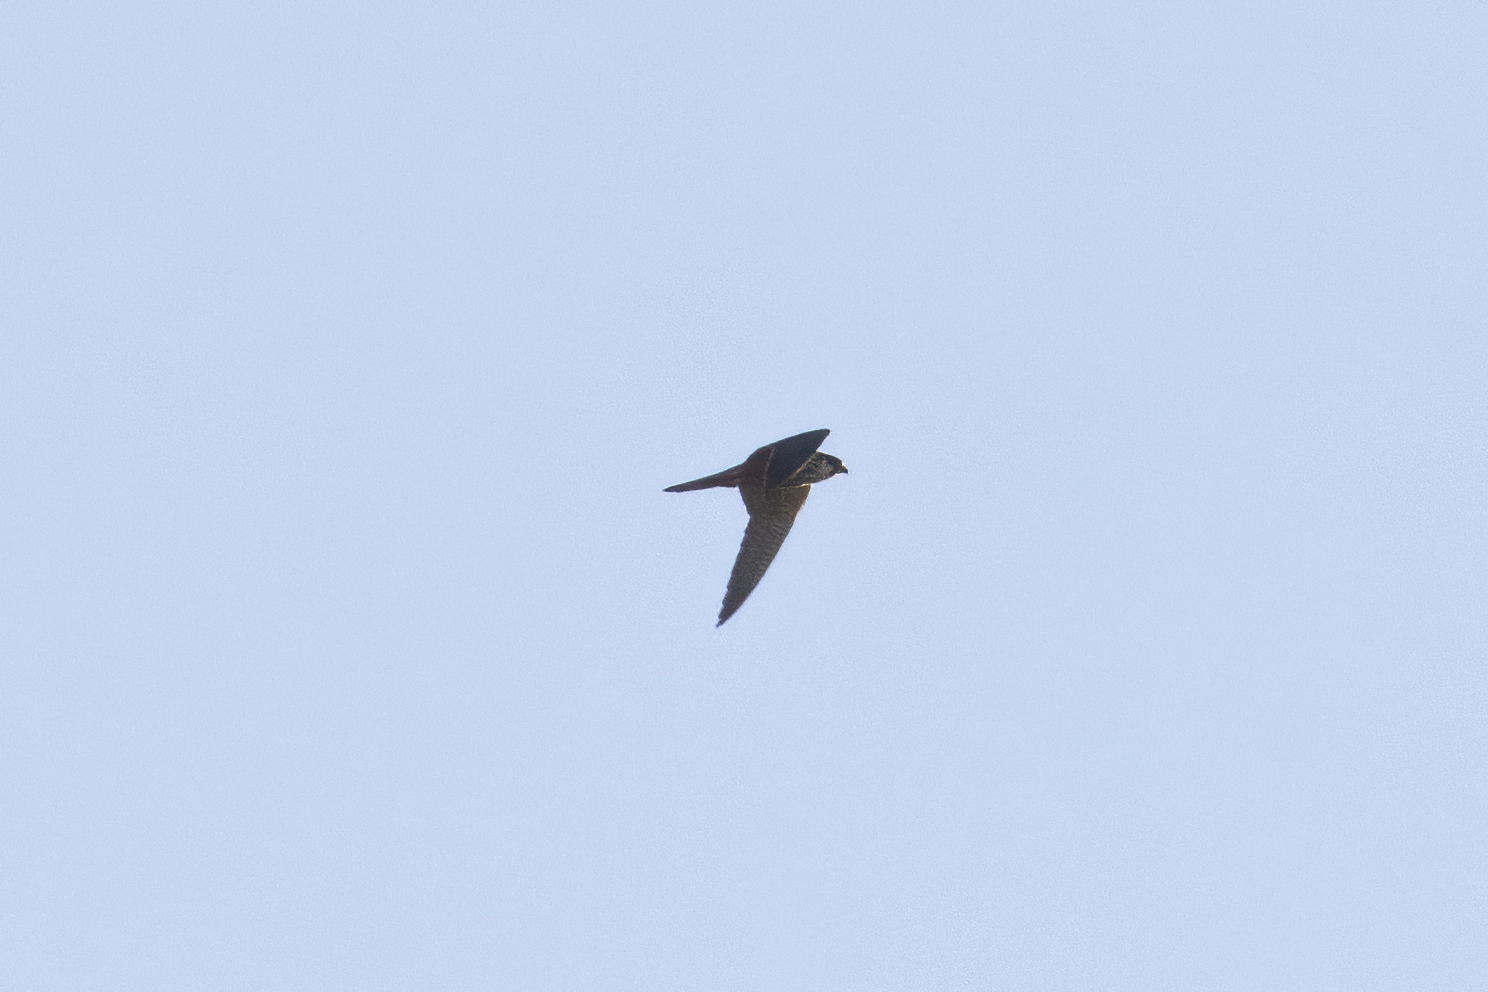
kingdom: Animalia
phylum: Chordata
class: Aves
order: Falconiformes
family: Falconidae
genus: Falco
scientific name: Falco subbuteo
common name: Eurasian hobby
